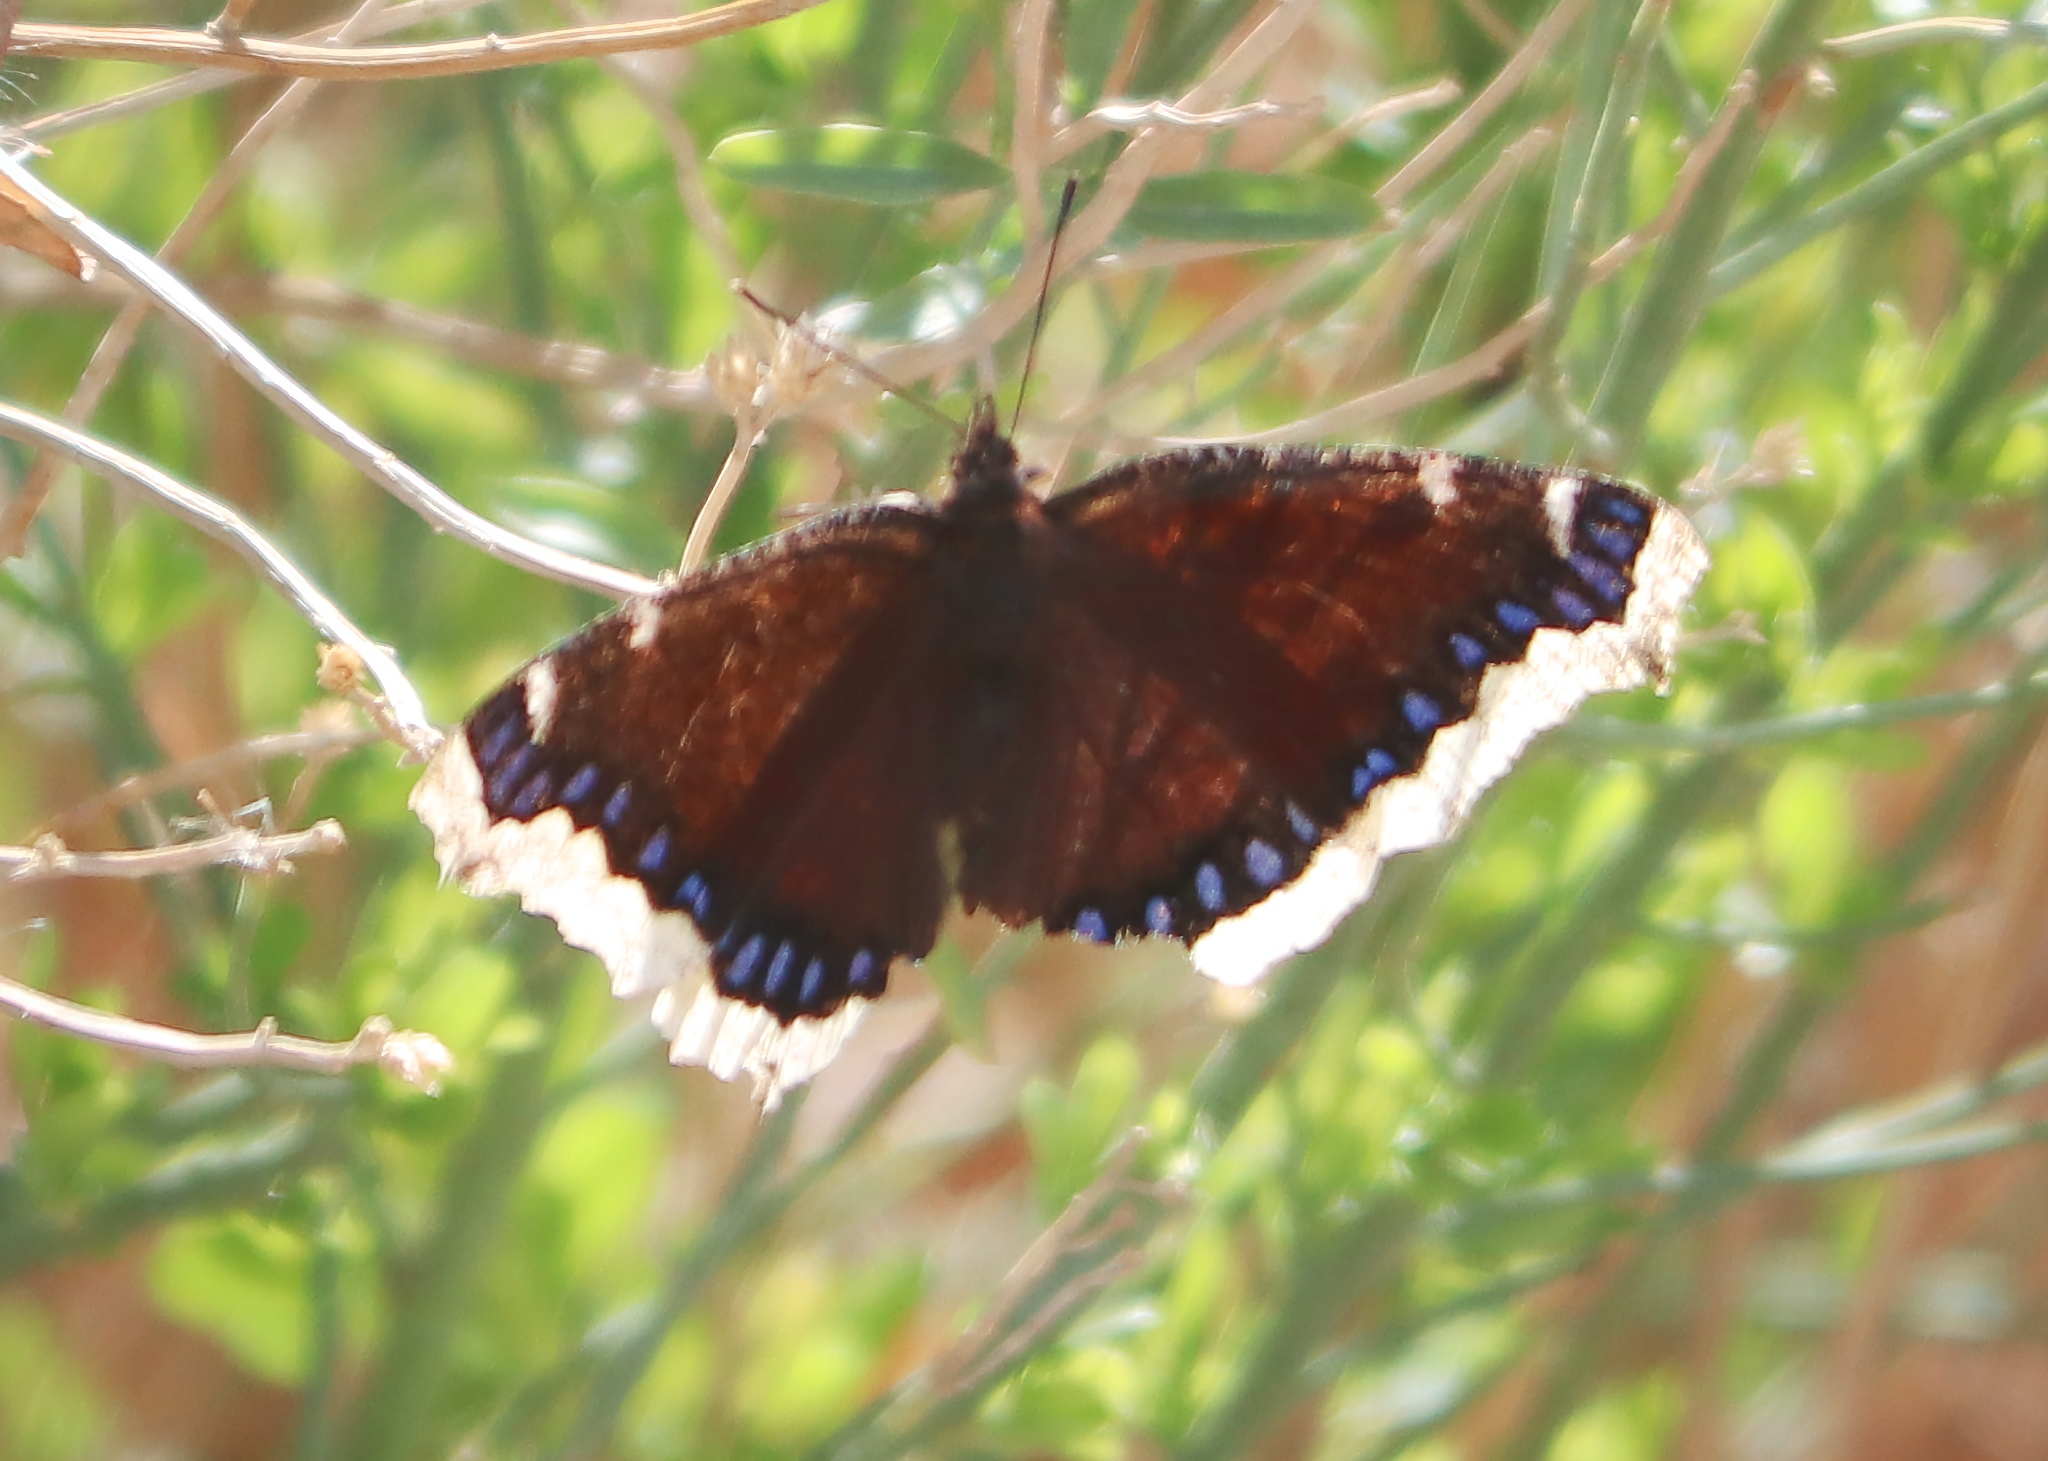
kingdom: Animalia
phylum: Arthropoda
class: Insecta
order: Lepidoptera
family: Nymphalidae
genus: Nymphalis
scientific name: Nymphalis antiopa
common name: Camberwell beauty
